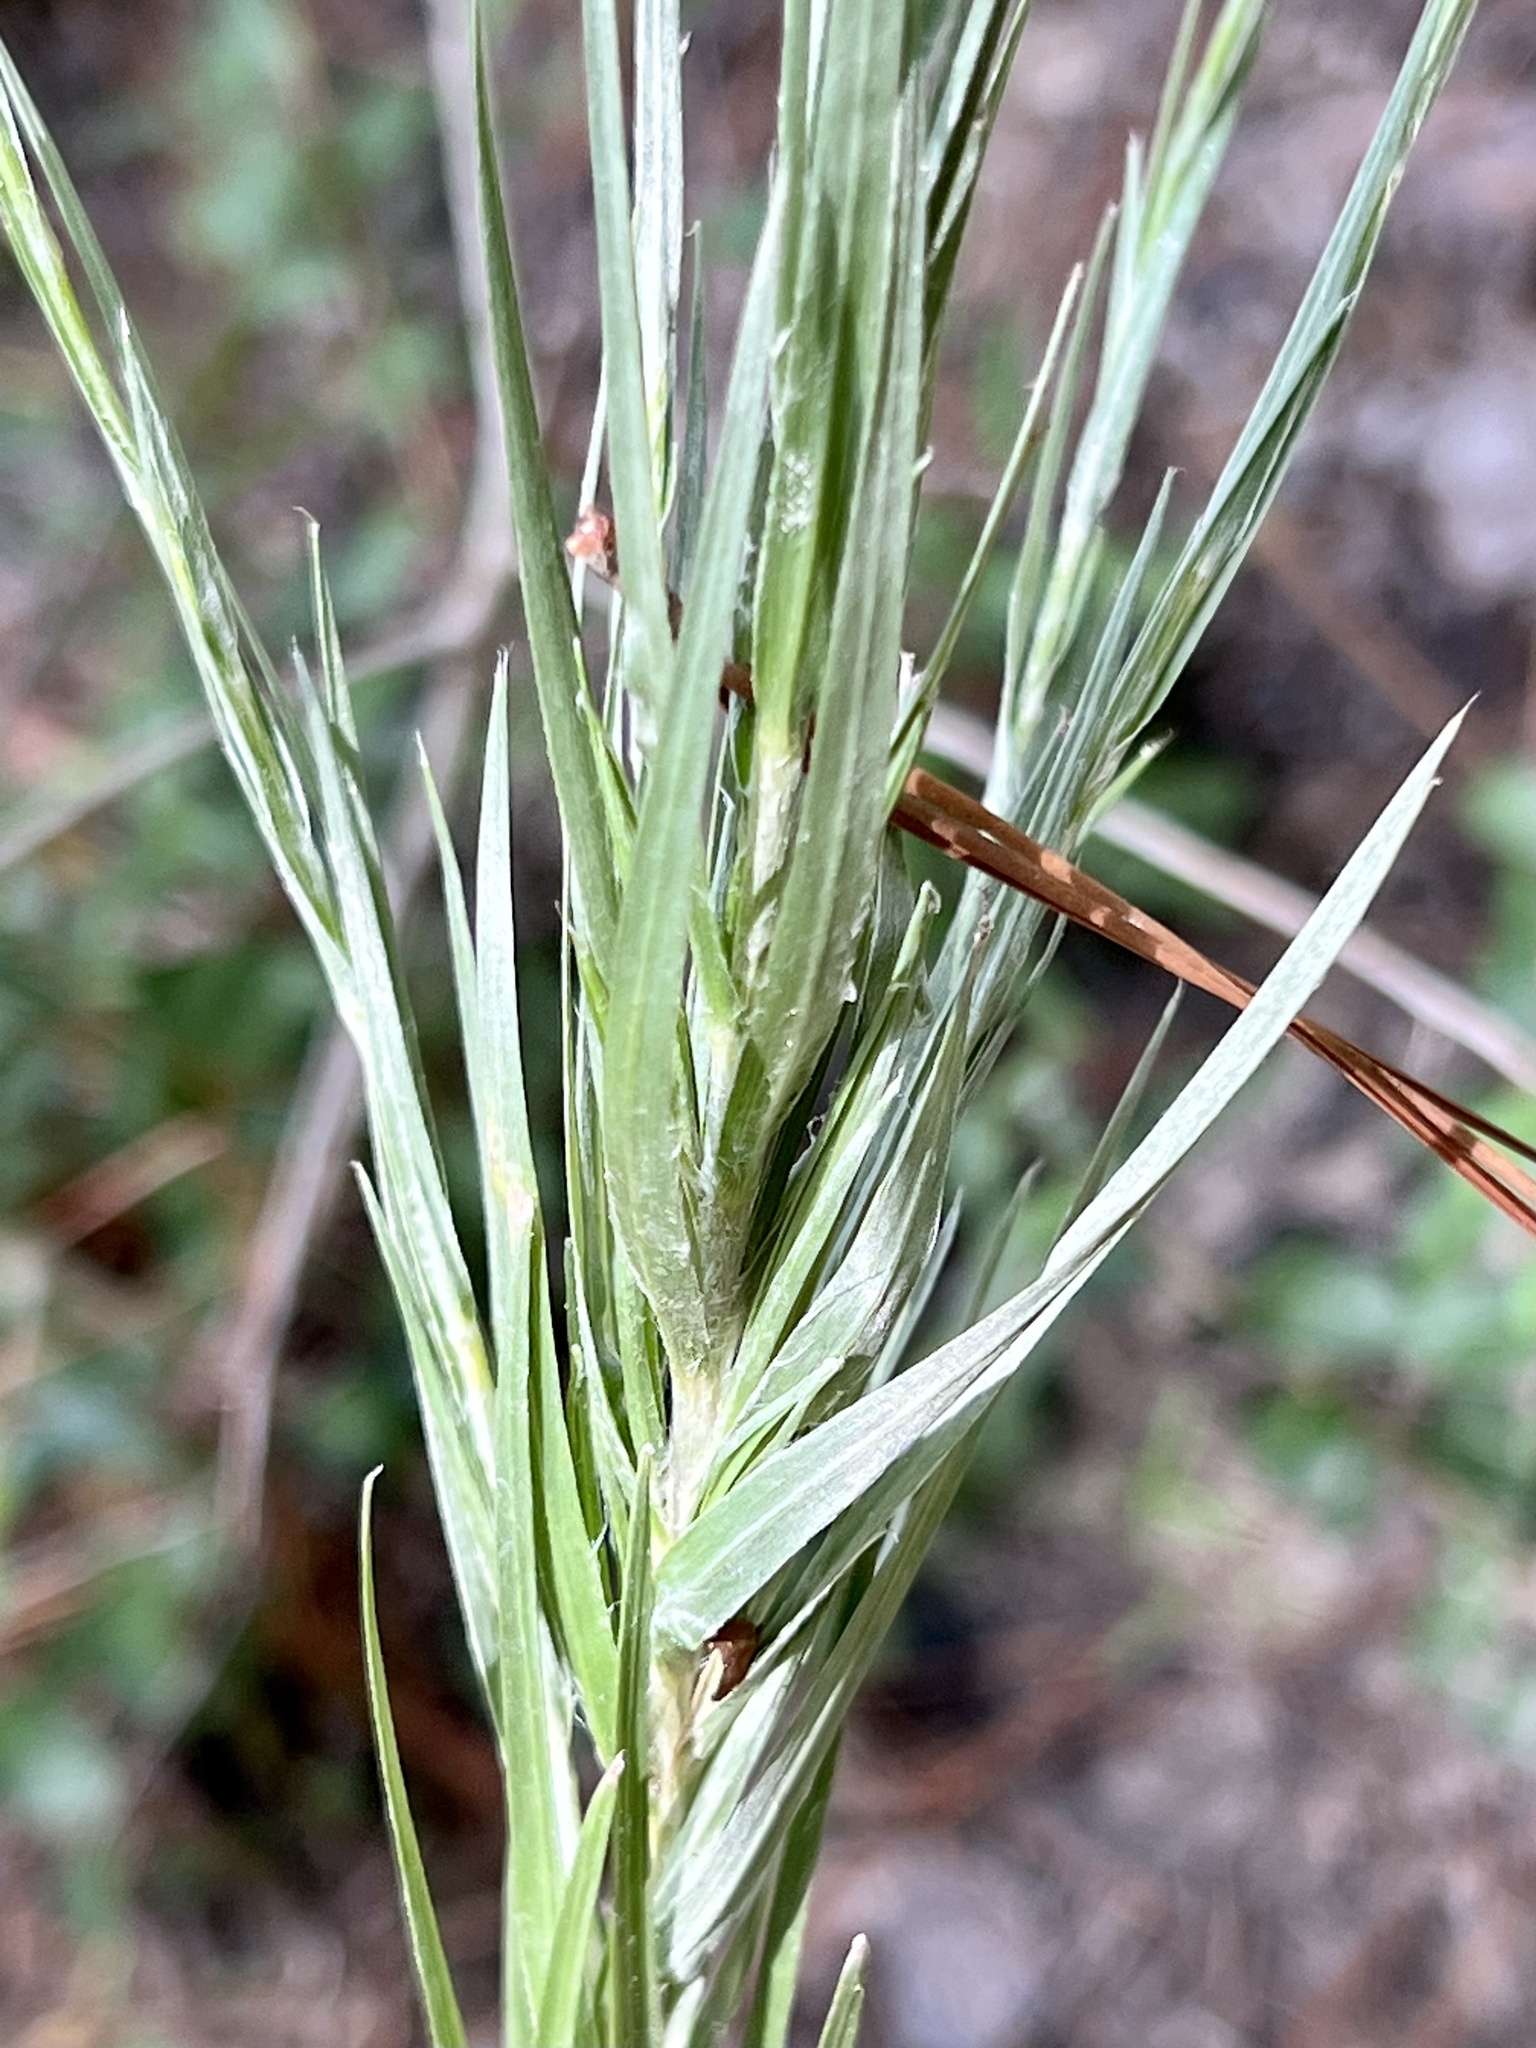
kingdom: Plantae
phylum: Tracheophyta
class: Magnoliopsida
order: Asterales
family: Asteraceae
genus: Pityopsis
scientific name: Pityopsis graminifolia
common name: Grass-leaf golden-aster
